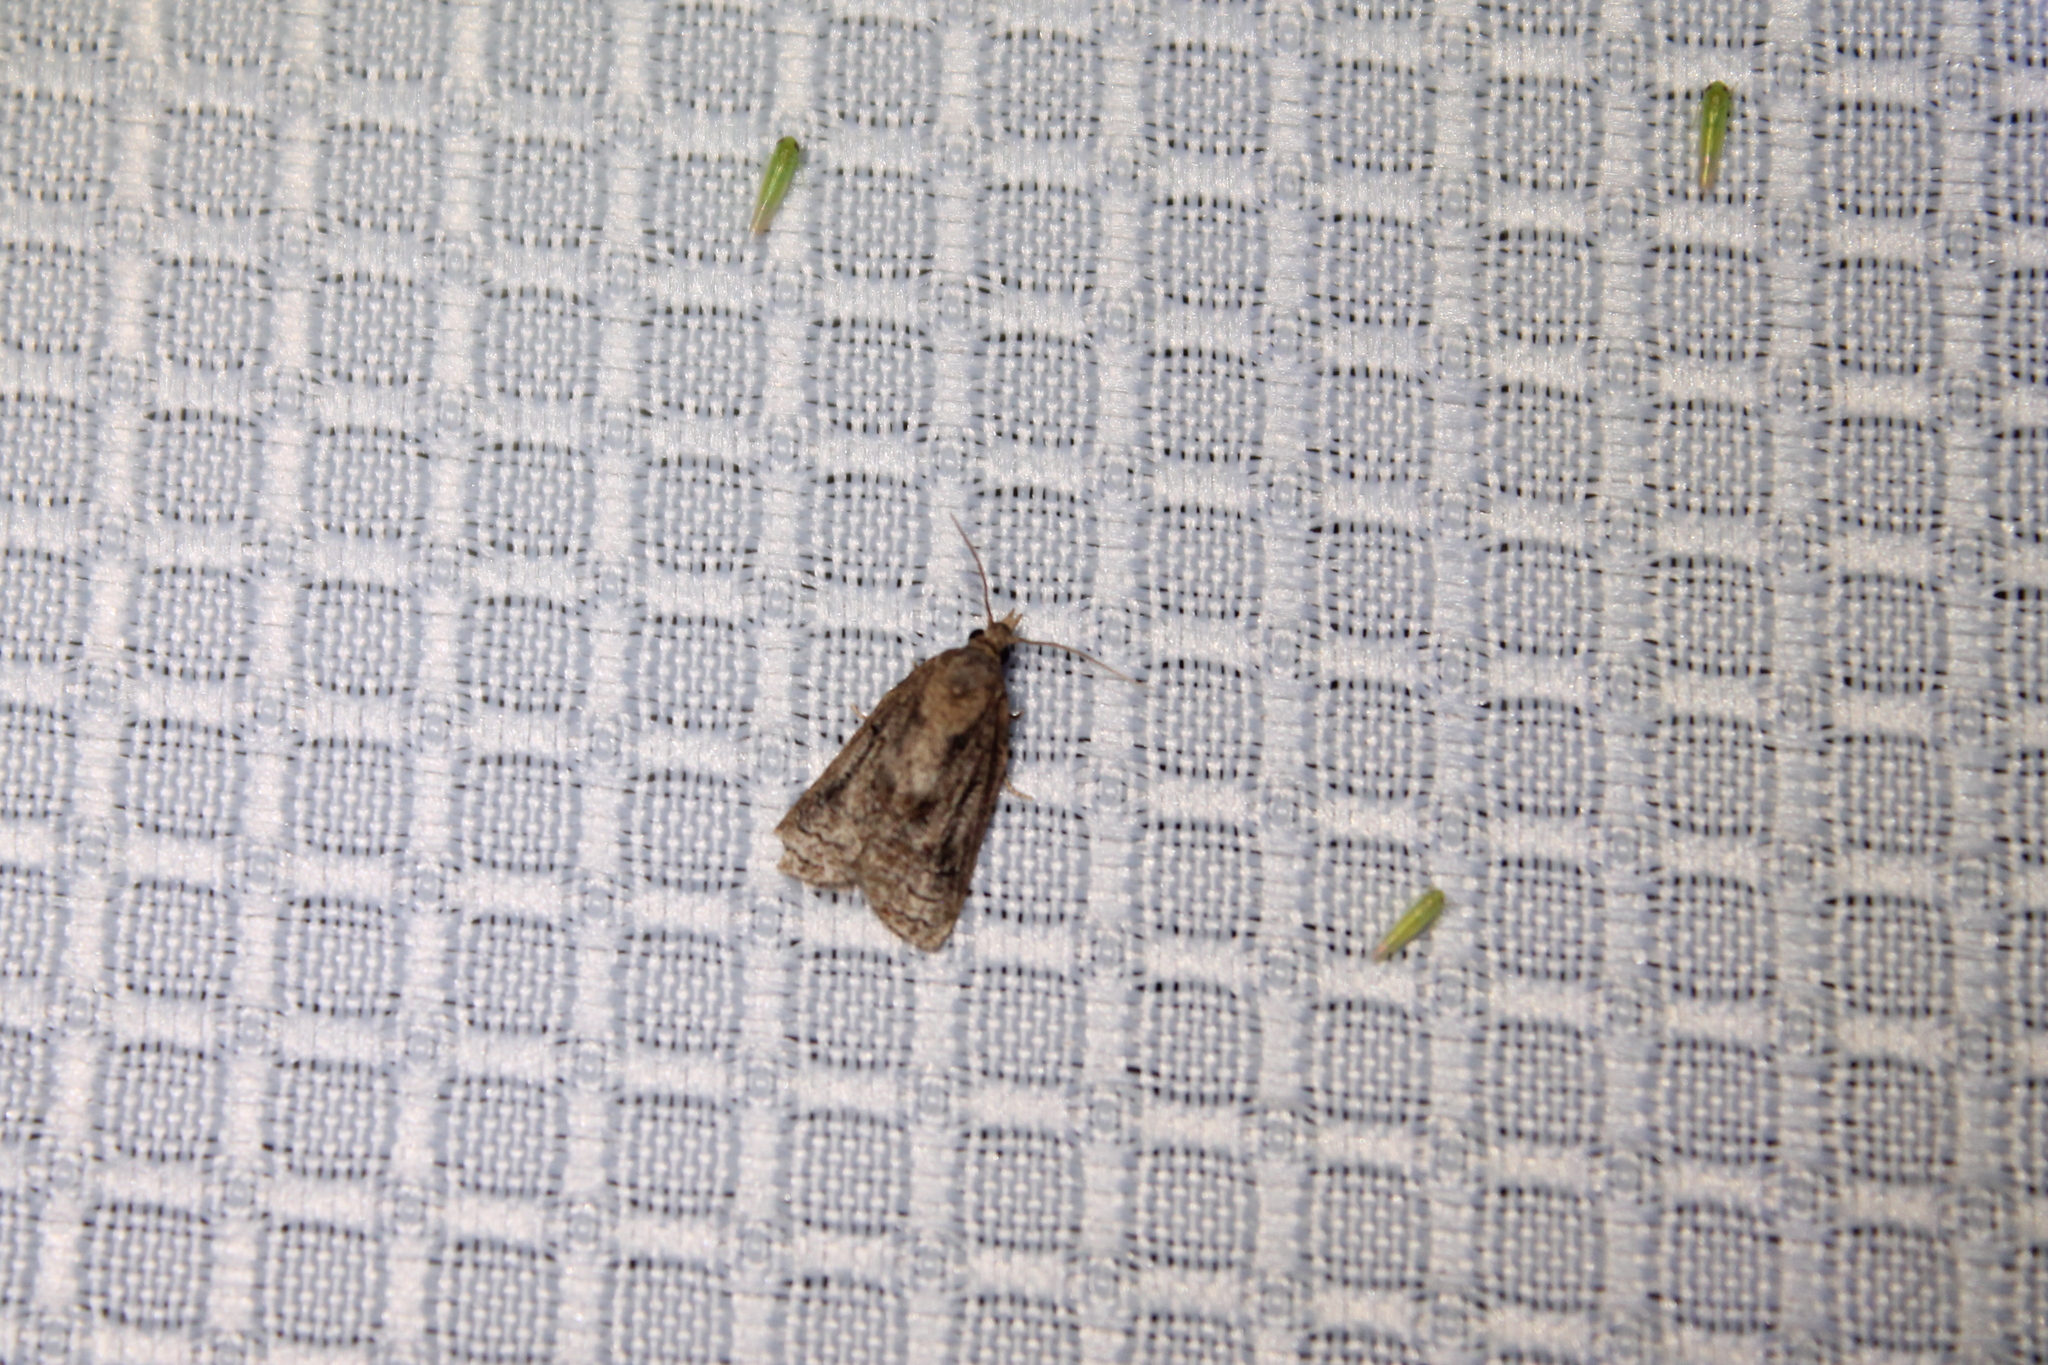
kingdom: Animalia
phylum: Arthropoda
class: Insecta
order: Lepidoptera
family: Tortricidae
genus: Platynota
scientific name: Platynota idaeusalis
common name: Tufted apple bud moth
